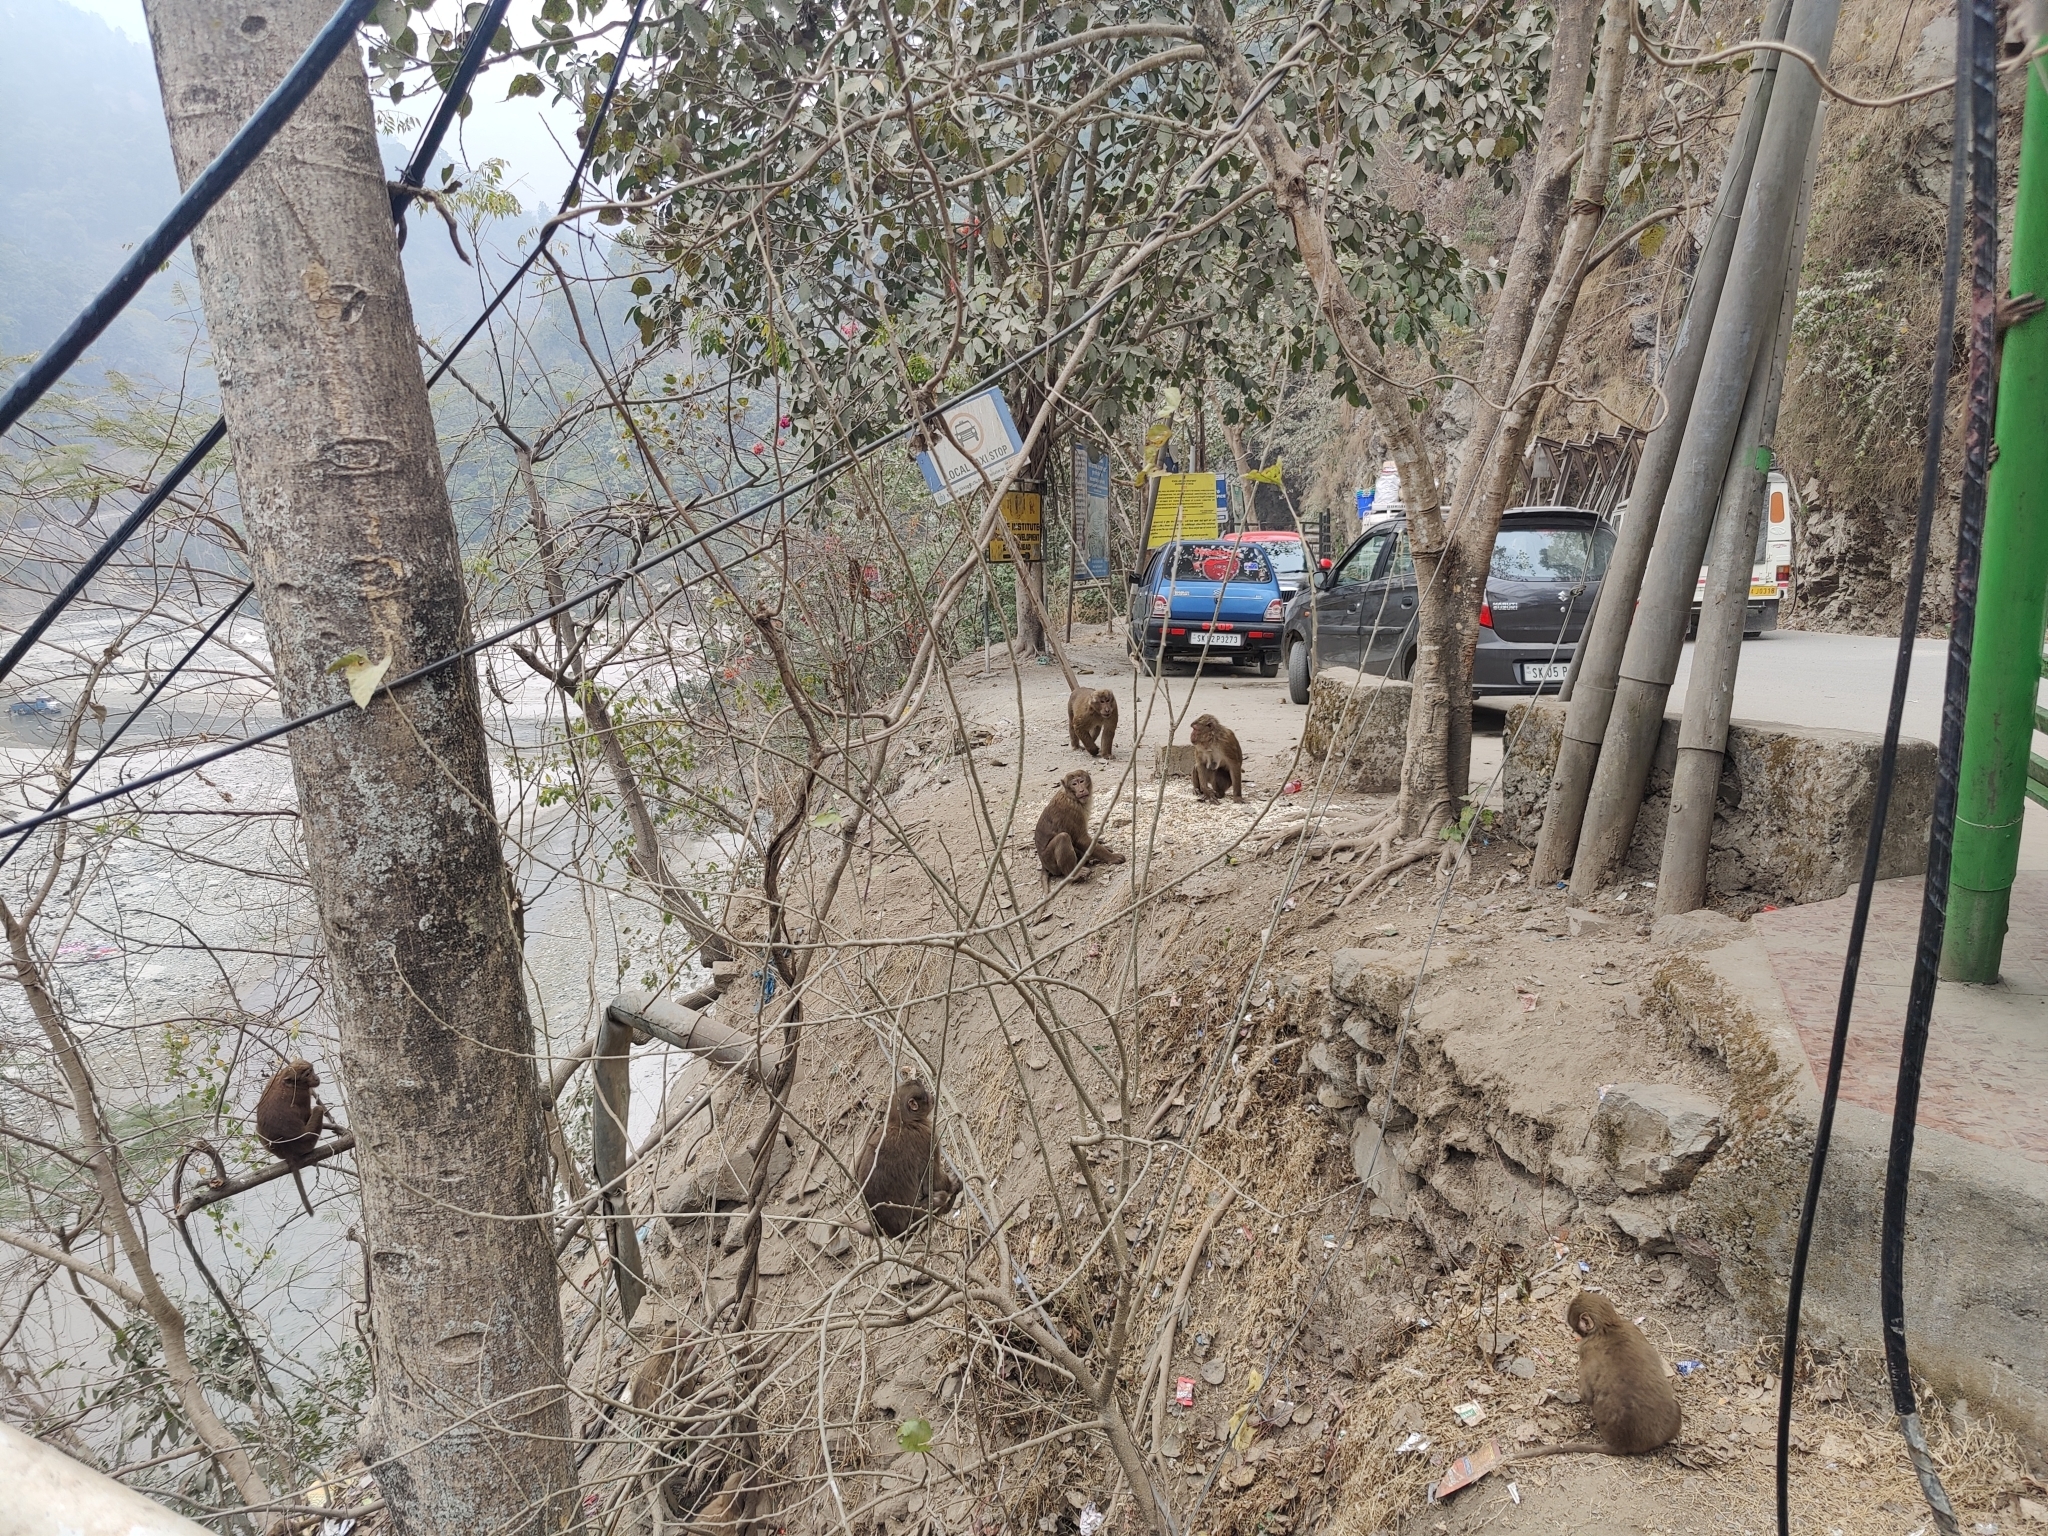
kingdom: Animalia
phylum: Chordata
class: Mammalia
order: Primates
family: Cercopithecidae
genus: Macaca
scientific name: Macaca assamensis
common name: Assam macaque
